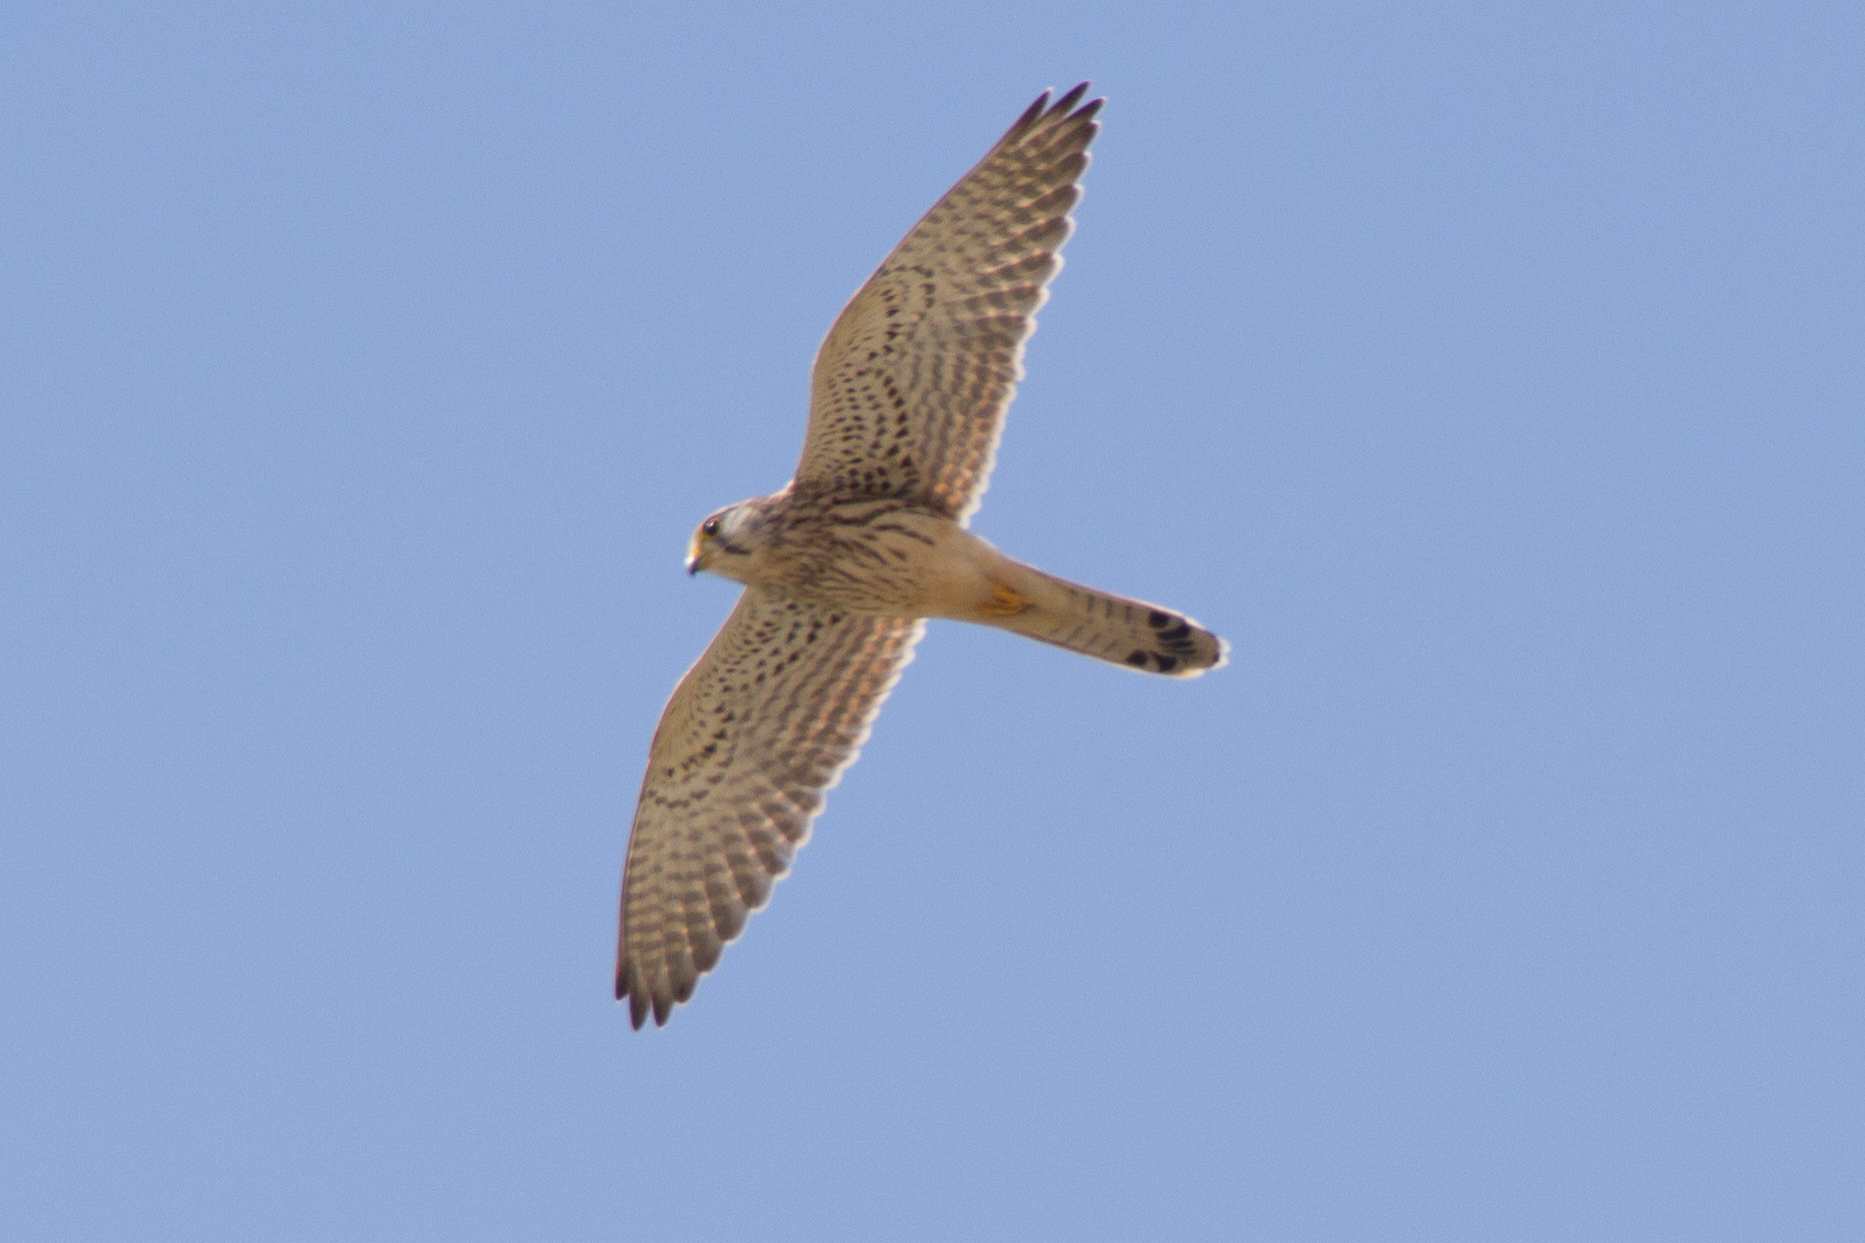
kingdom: Animalia
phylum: Chordata
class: Aves
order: Falconiformes
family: Falconidae
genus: Falco
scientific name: Falco tinnunculus
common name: Common kestrel
